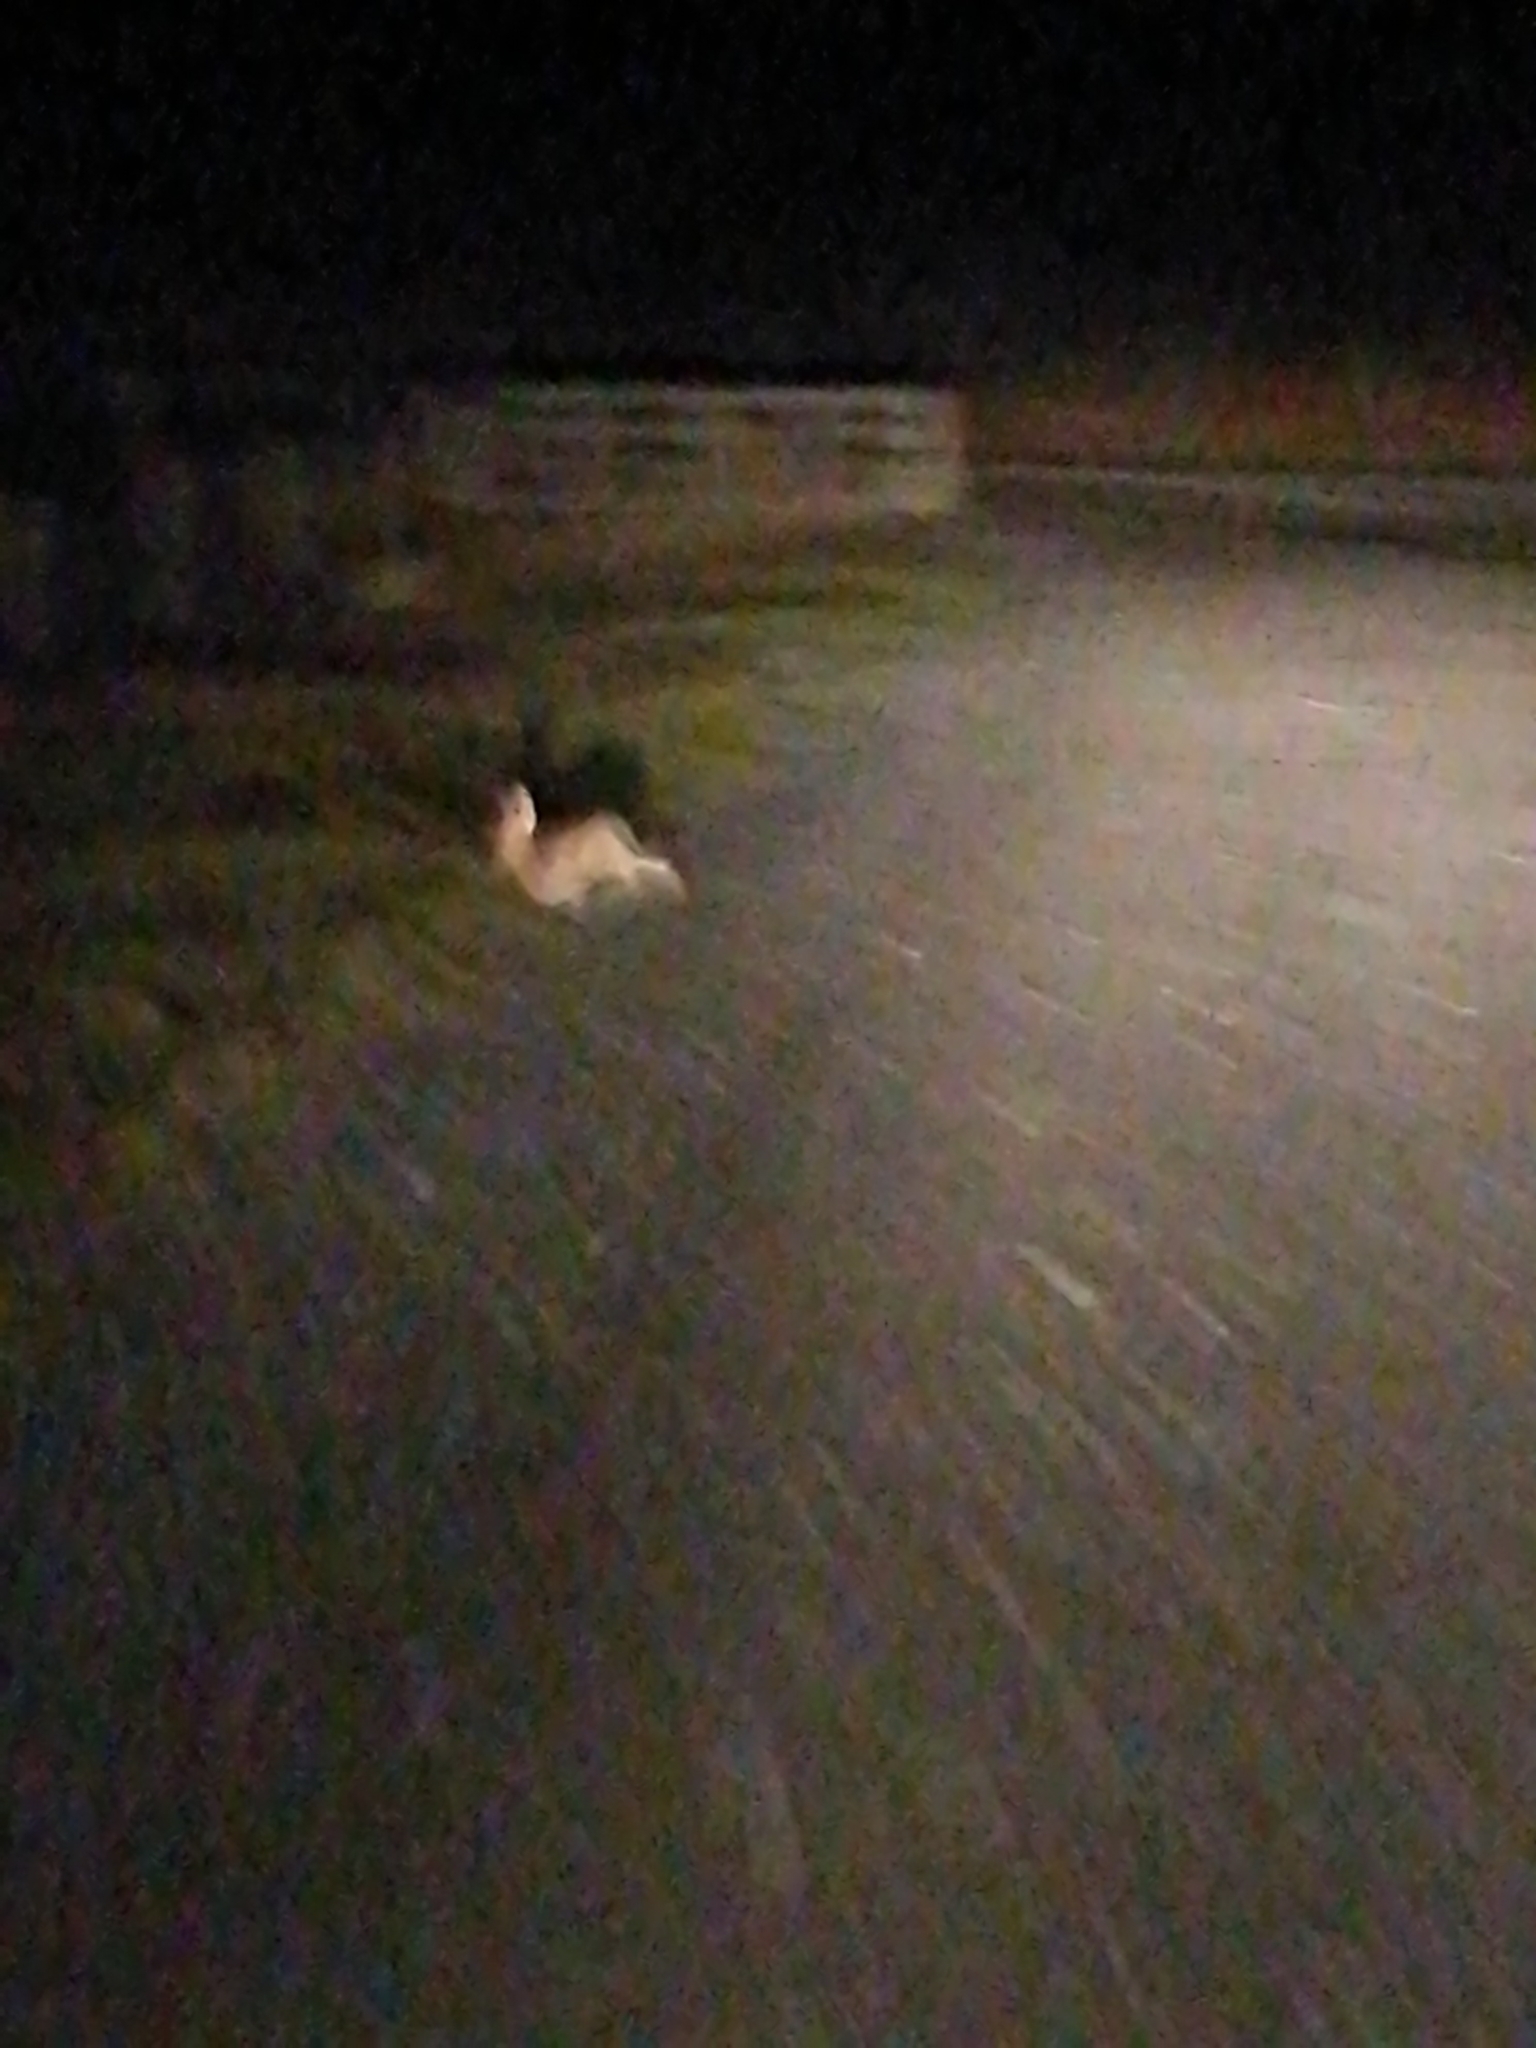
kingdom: Animalia
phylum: Chordata
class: Mammalia
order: Lagomorpha
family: Leporidae
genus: Lepus
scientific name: Lepus europaeus
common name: European hare
